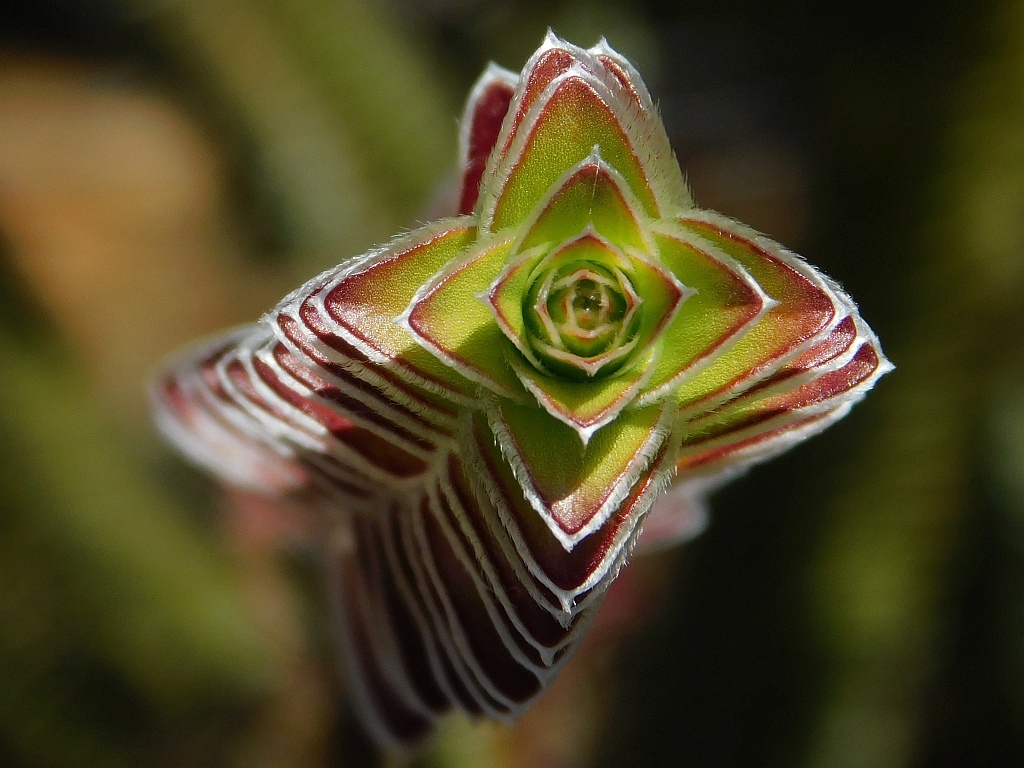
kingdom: Plantae
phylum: Tracheophyta
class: Magnoliopsida
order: Malvales
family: Thymelaeaceae
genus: Struthiola
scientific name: Struthiola argentea
